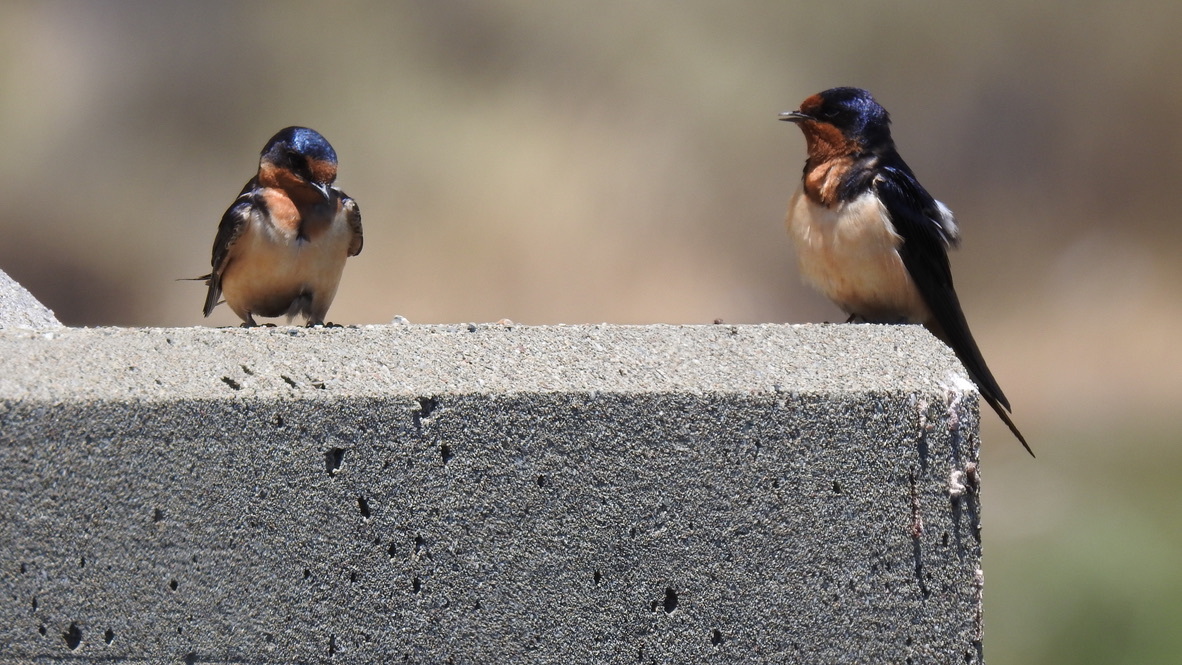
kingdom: Animalia
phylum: Chordata
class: Aves
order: Passeriformes
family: Hirundinidae
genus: Hirundo
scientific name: Hirundo rustica
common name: Barn swallow
